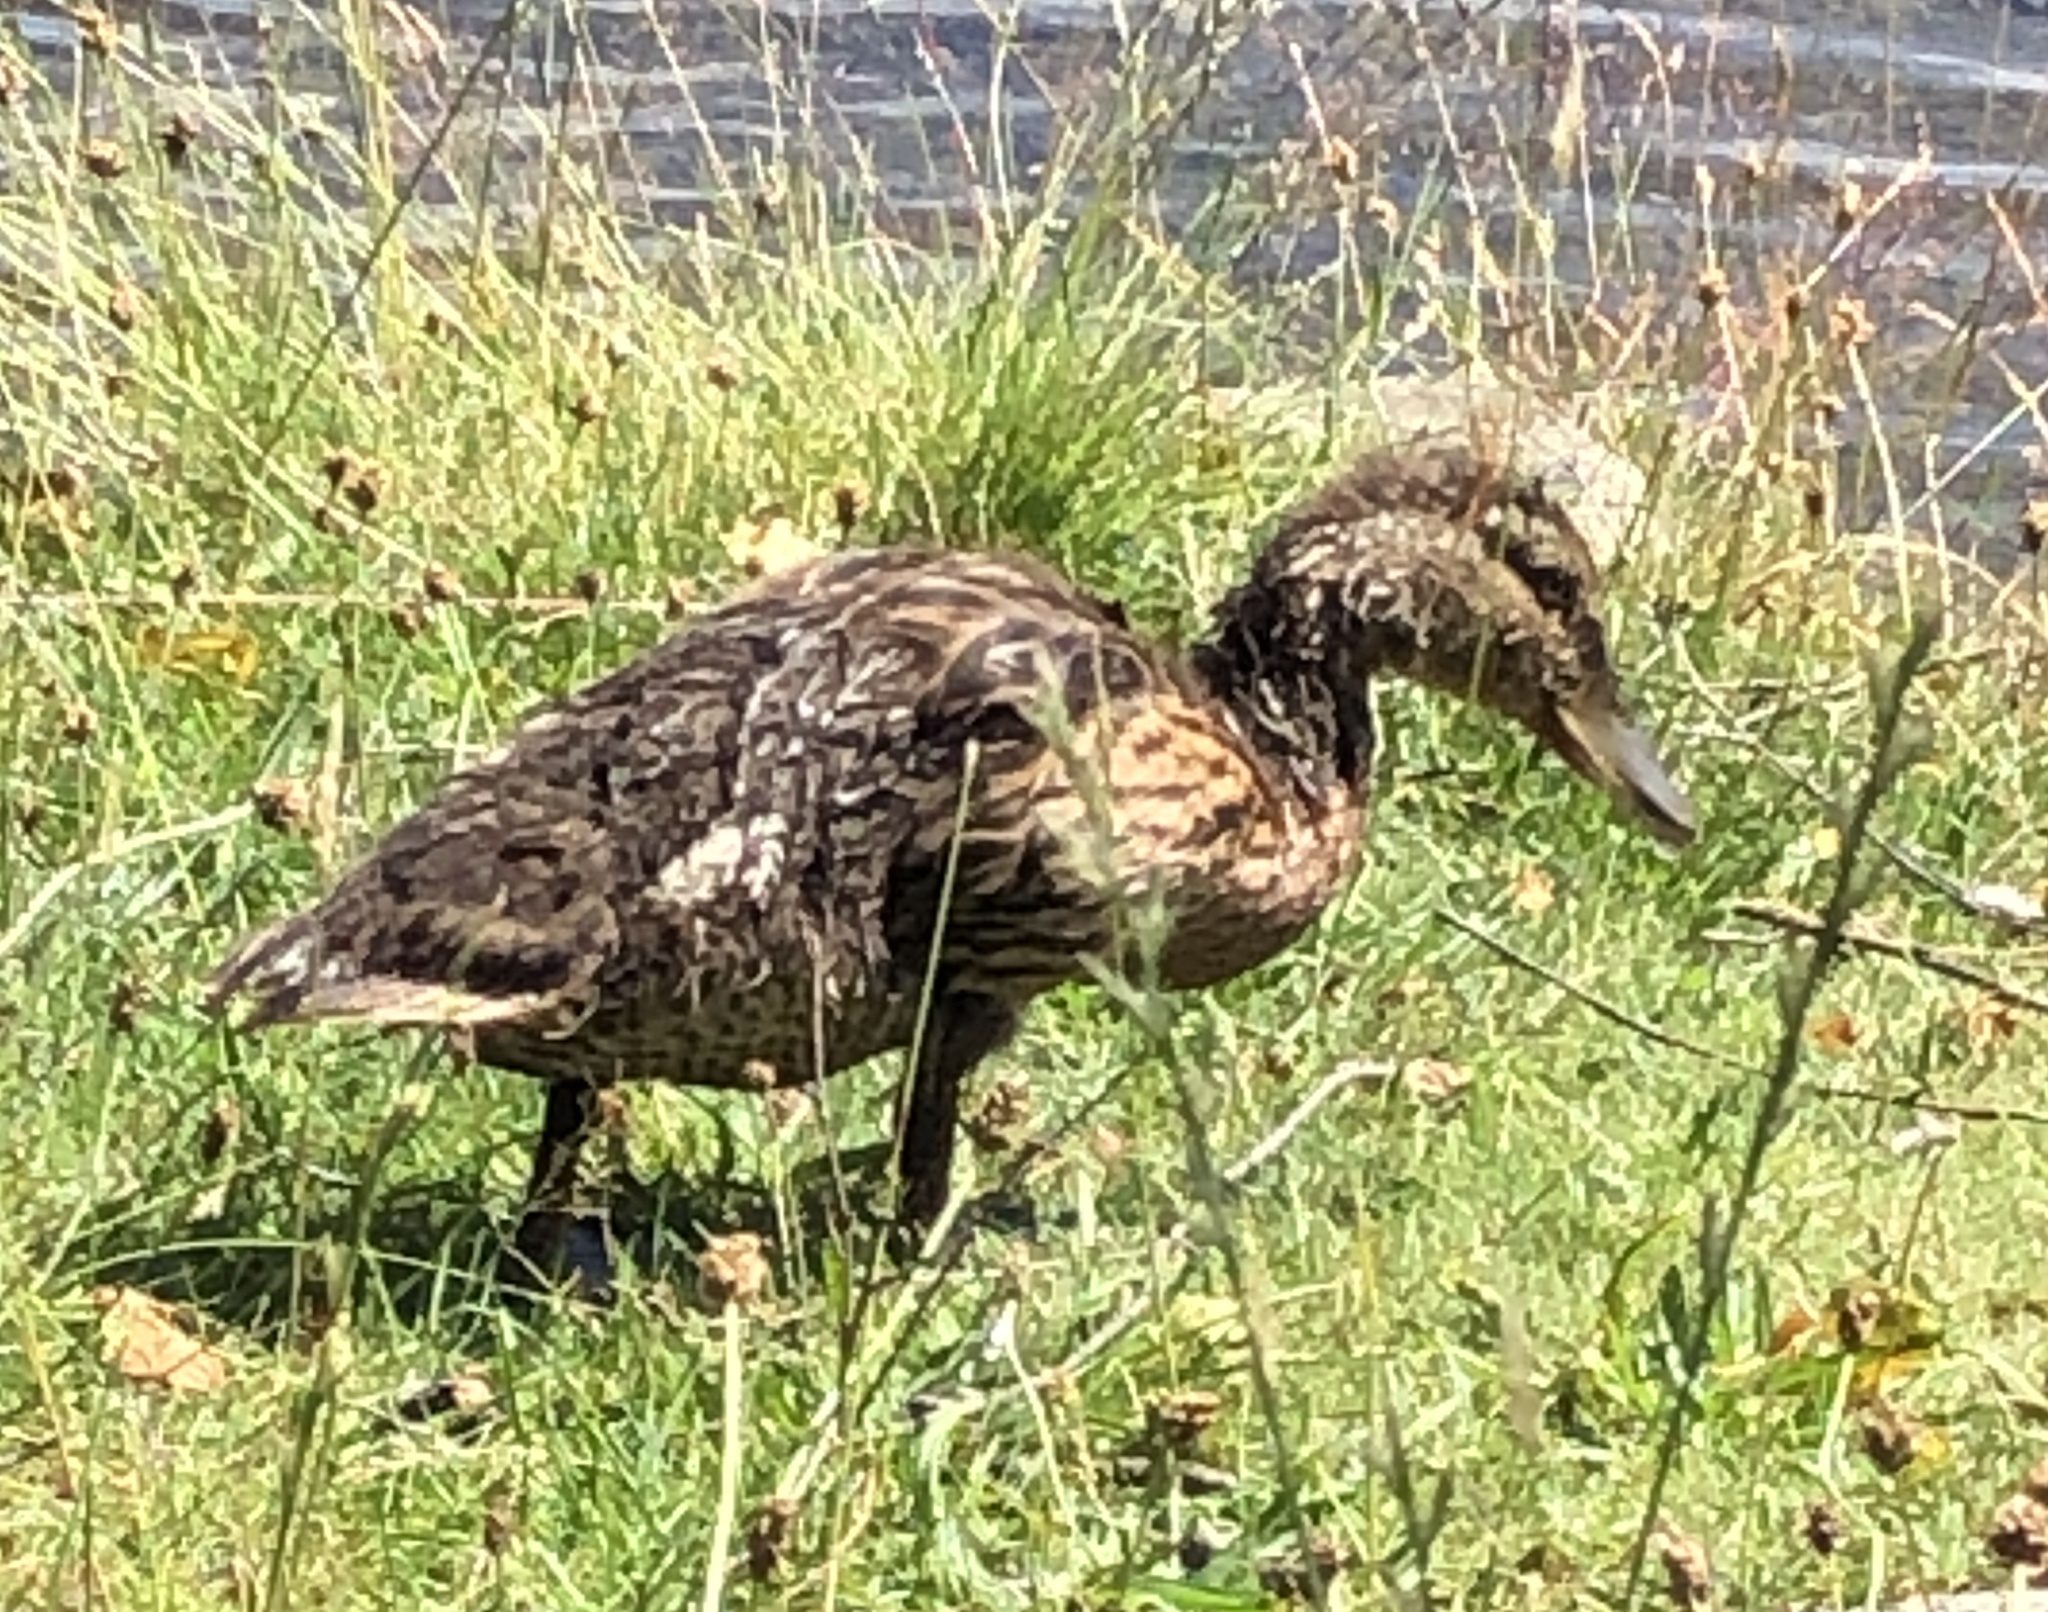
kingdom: Animalia
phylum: Chordata
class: Aves
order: Anseriformes
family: Anatidae
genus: Anas
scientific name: Anas platyrhynchos
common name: Mallard
